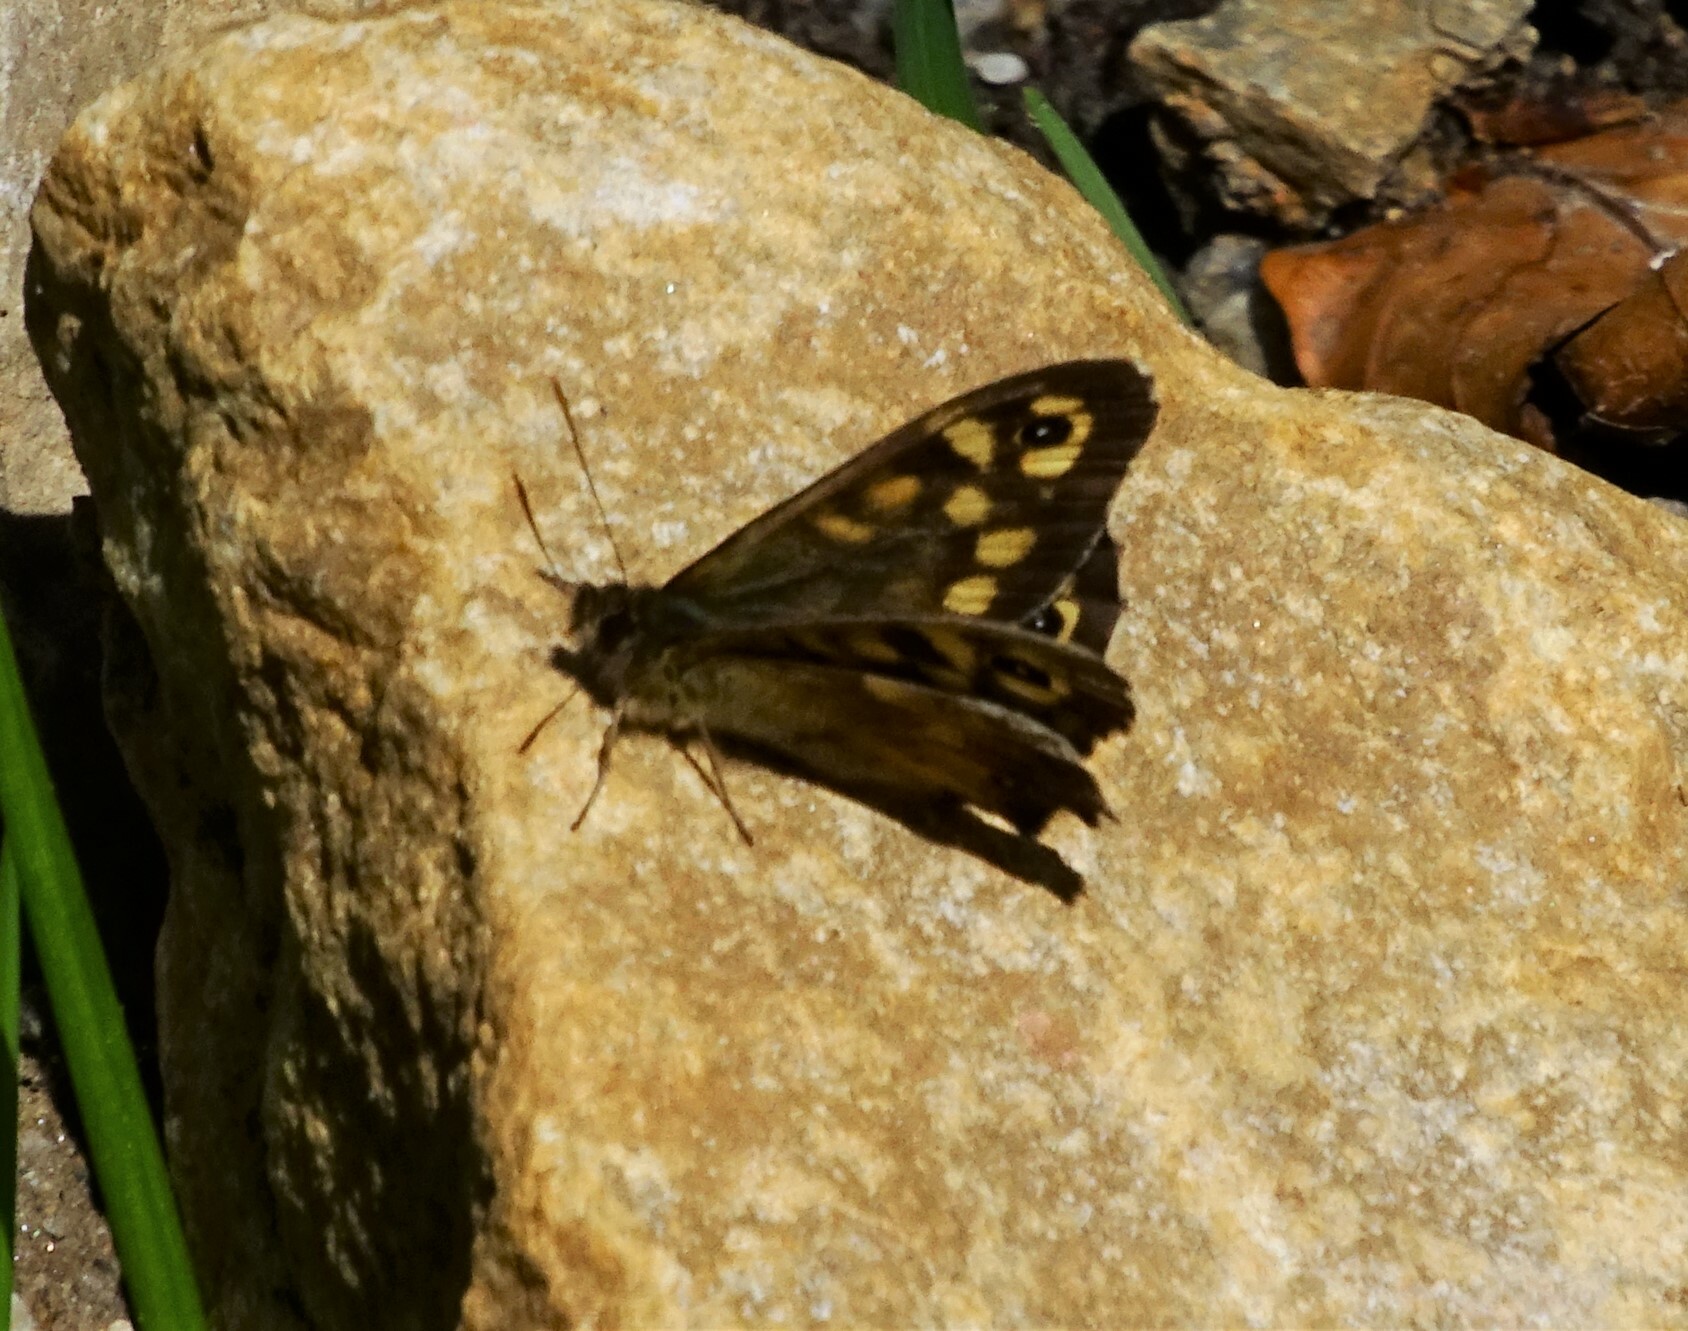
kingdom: Animalia
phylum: Arthropoda
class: Insecta
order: Lepidoptera
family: Nymphalidae
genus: Pararge
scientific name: Pararge aegeria
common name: Speckled wood
